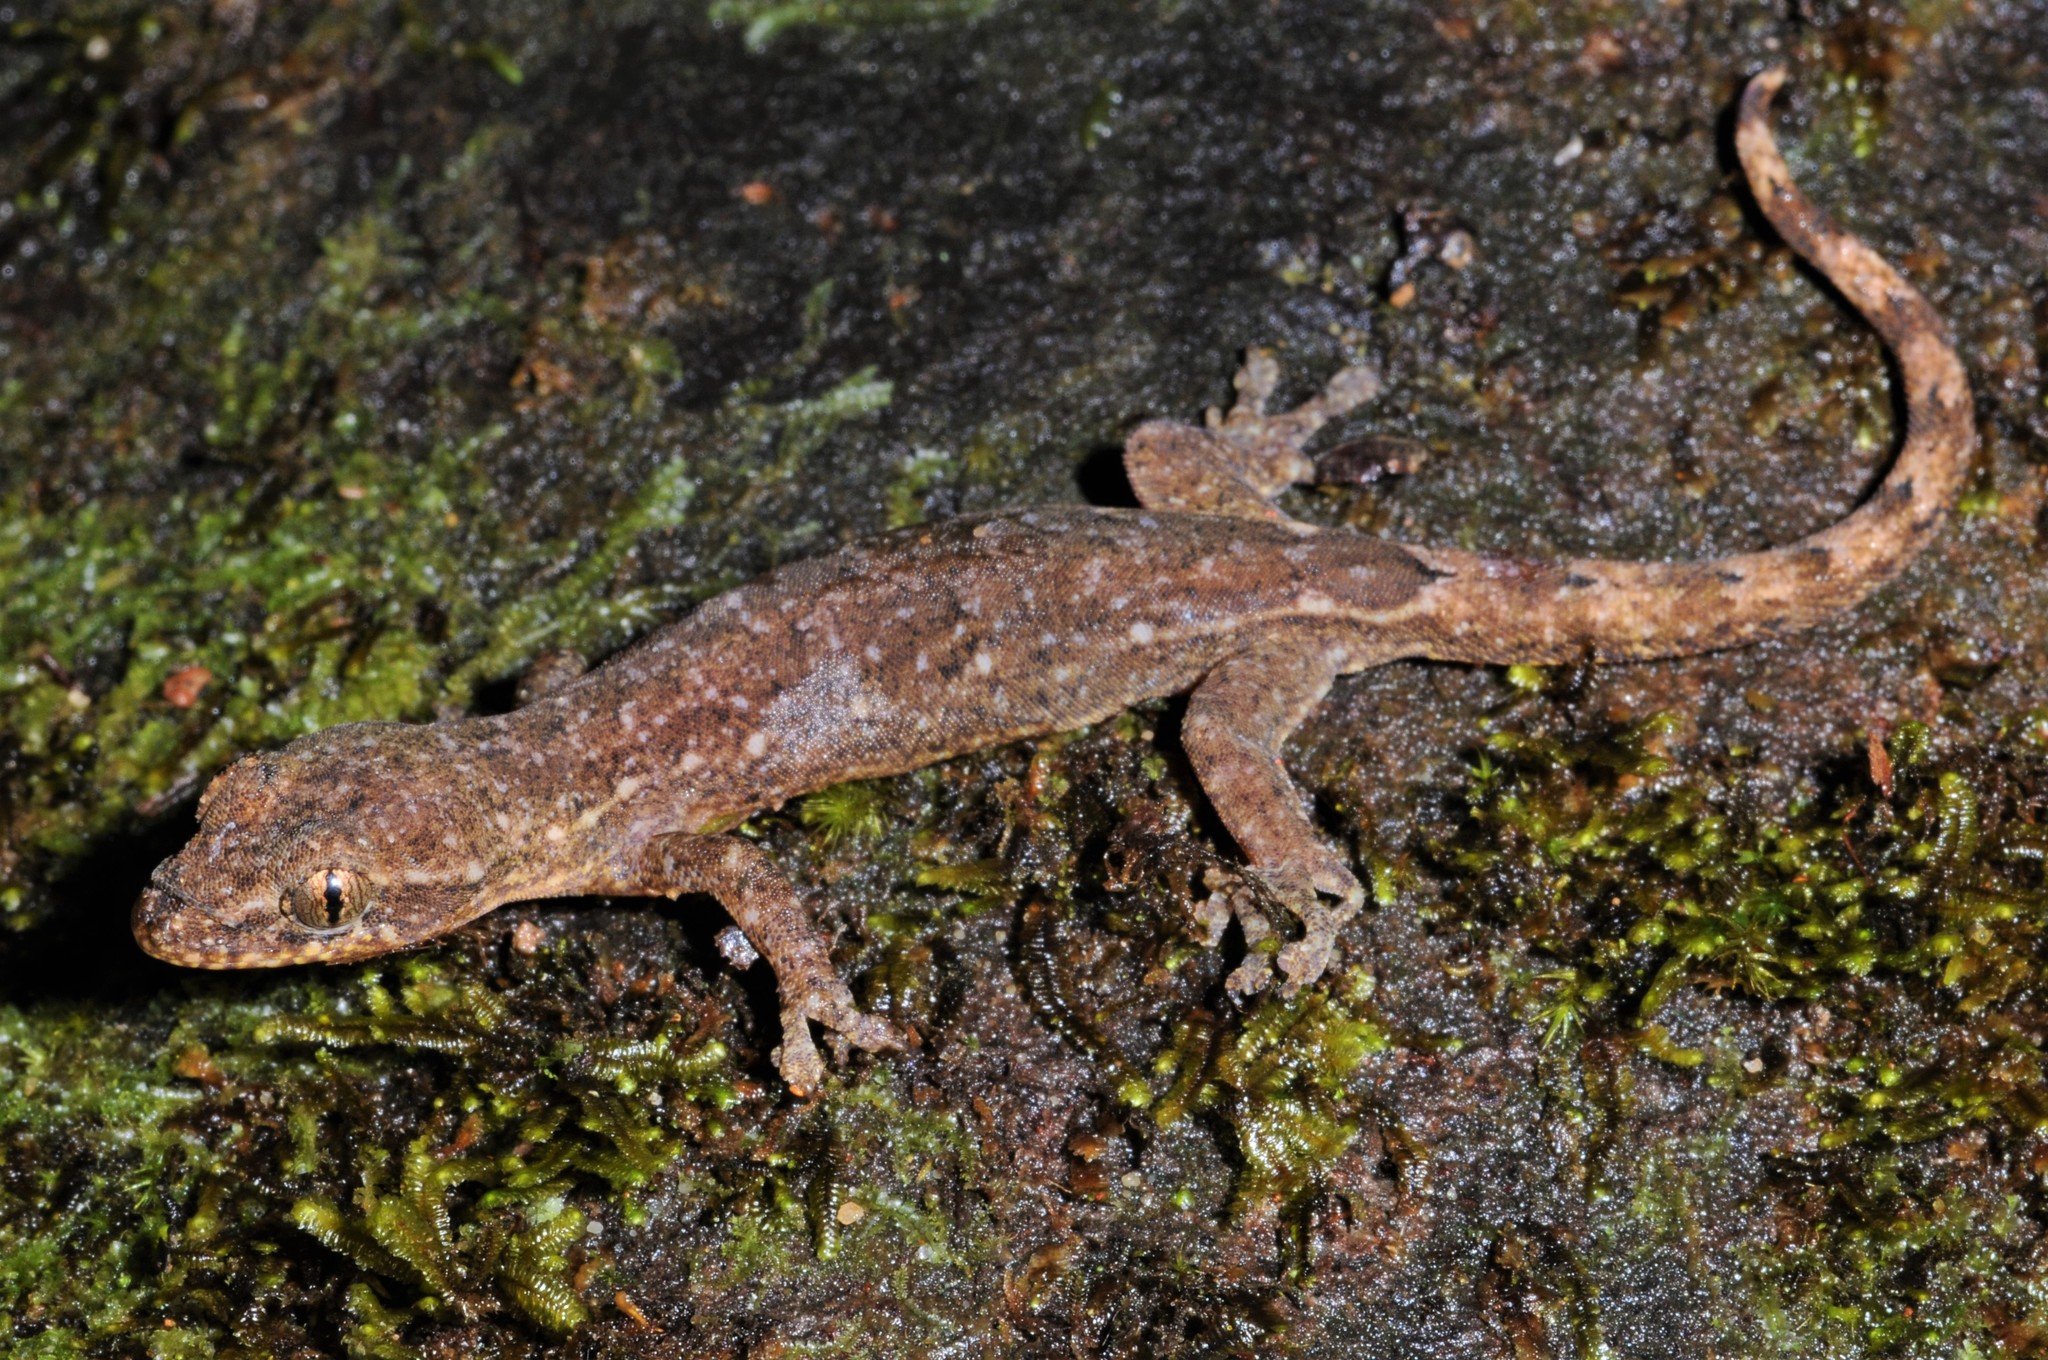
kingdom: Animalia
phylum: Chordata
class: Squamata
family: Gekkonidae
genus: Hemiphyllodactylus
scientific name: Hemiphyllodactylus titiwangsaensis
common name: Titiwangsa slender gecko
